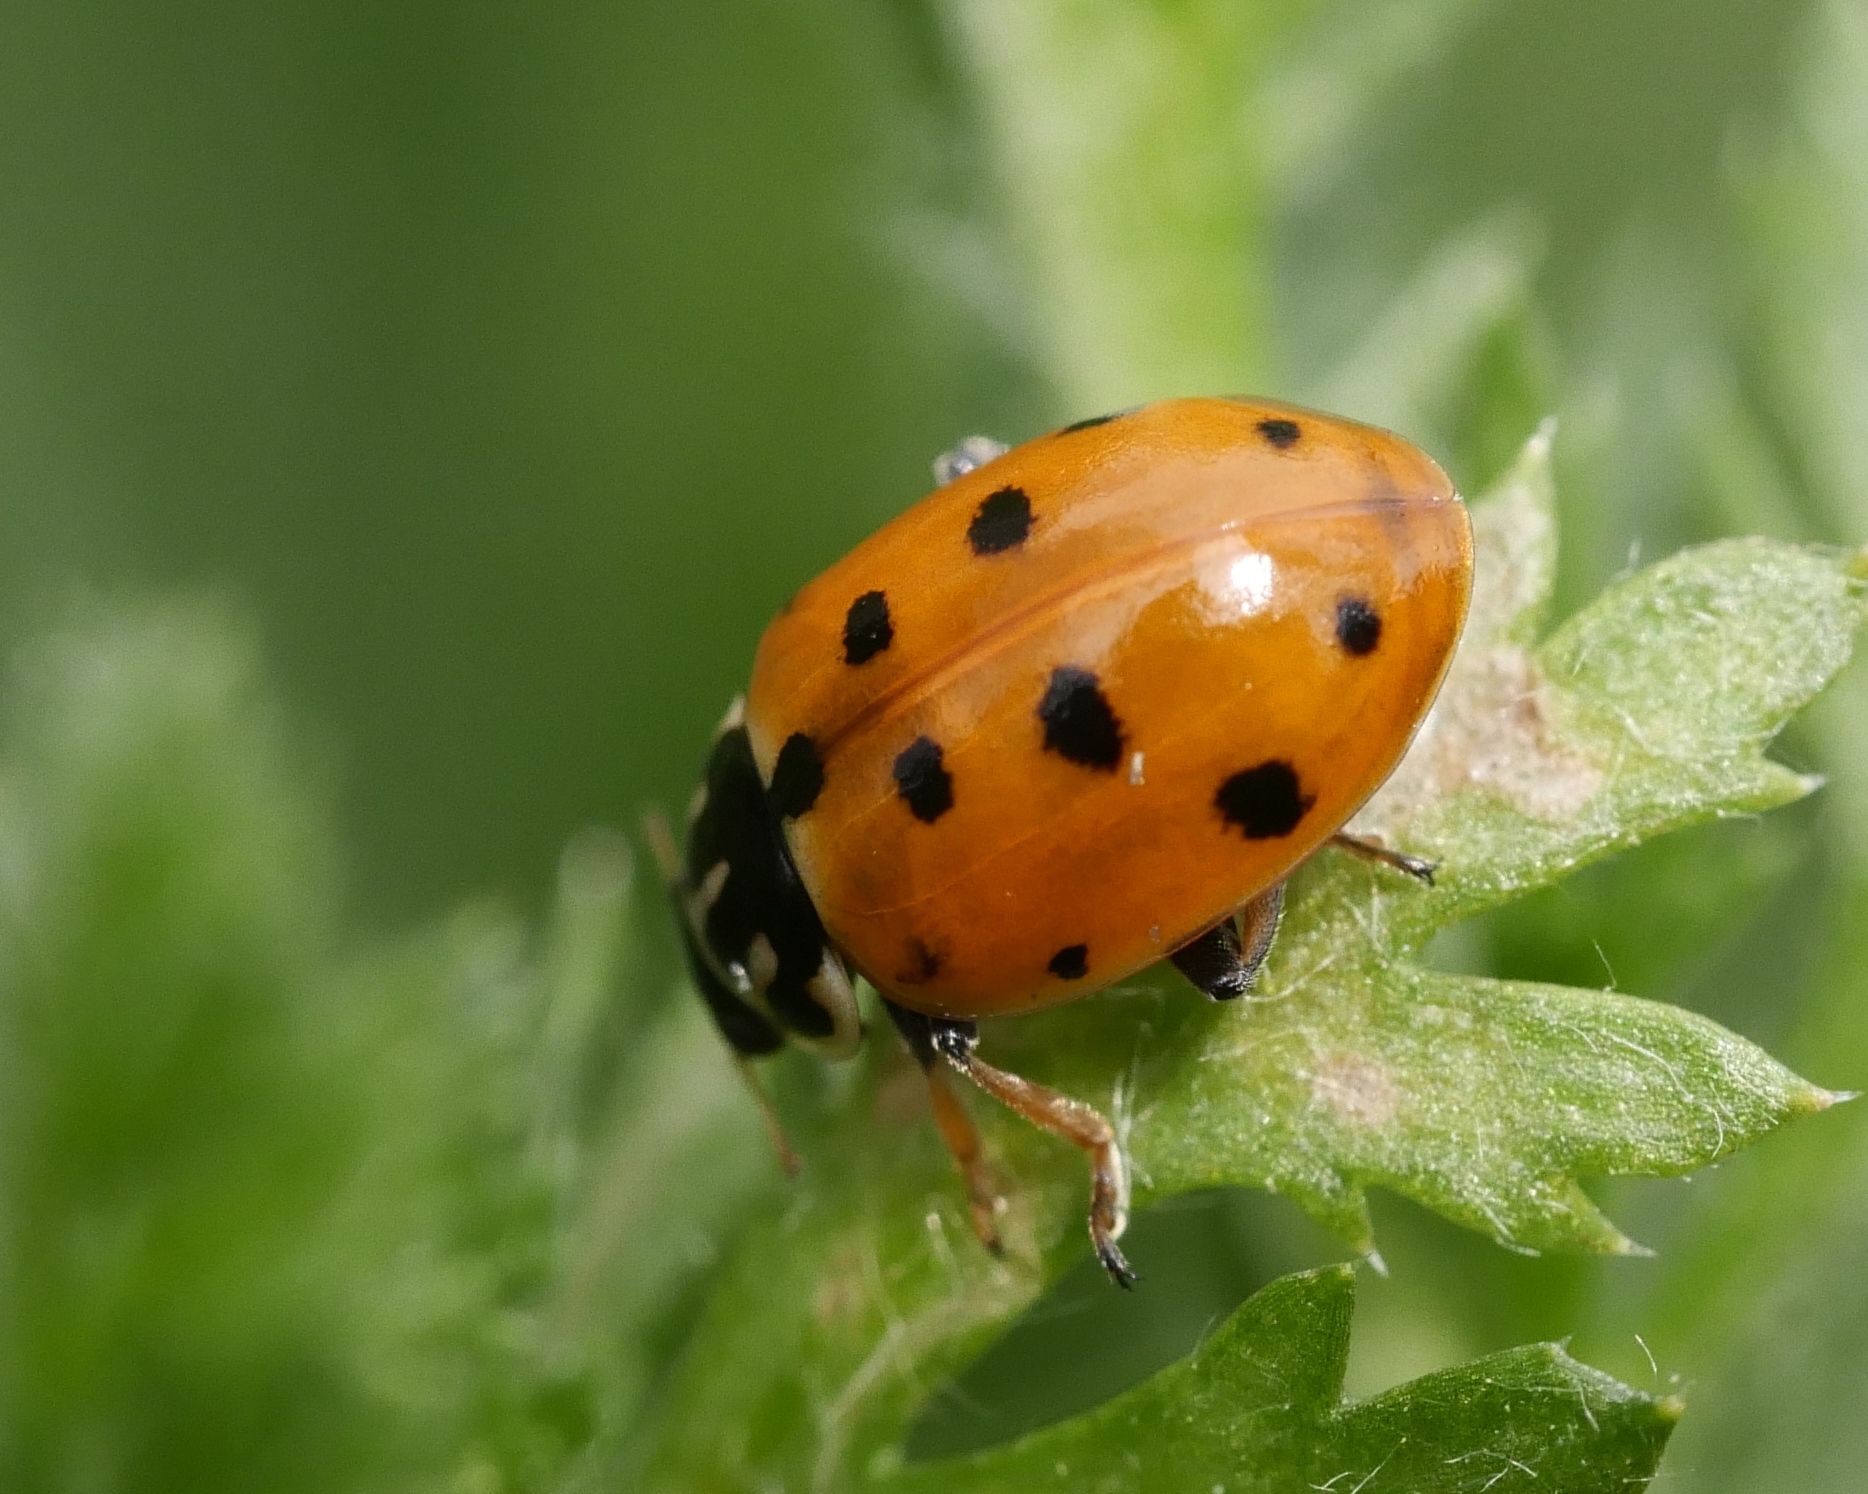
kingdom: Animalia
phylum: Arthropoda
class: Insecta
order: Coleoptera
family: Coccinellidae
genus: Hippodamia
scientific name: Hippodamia variegata
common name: Ladybird beetle
